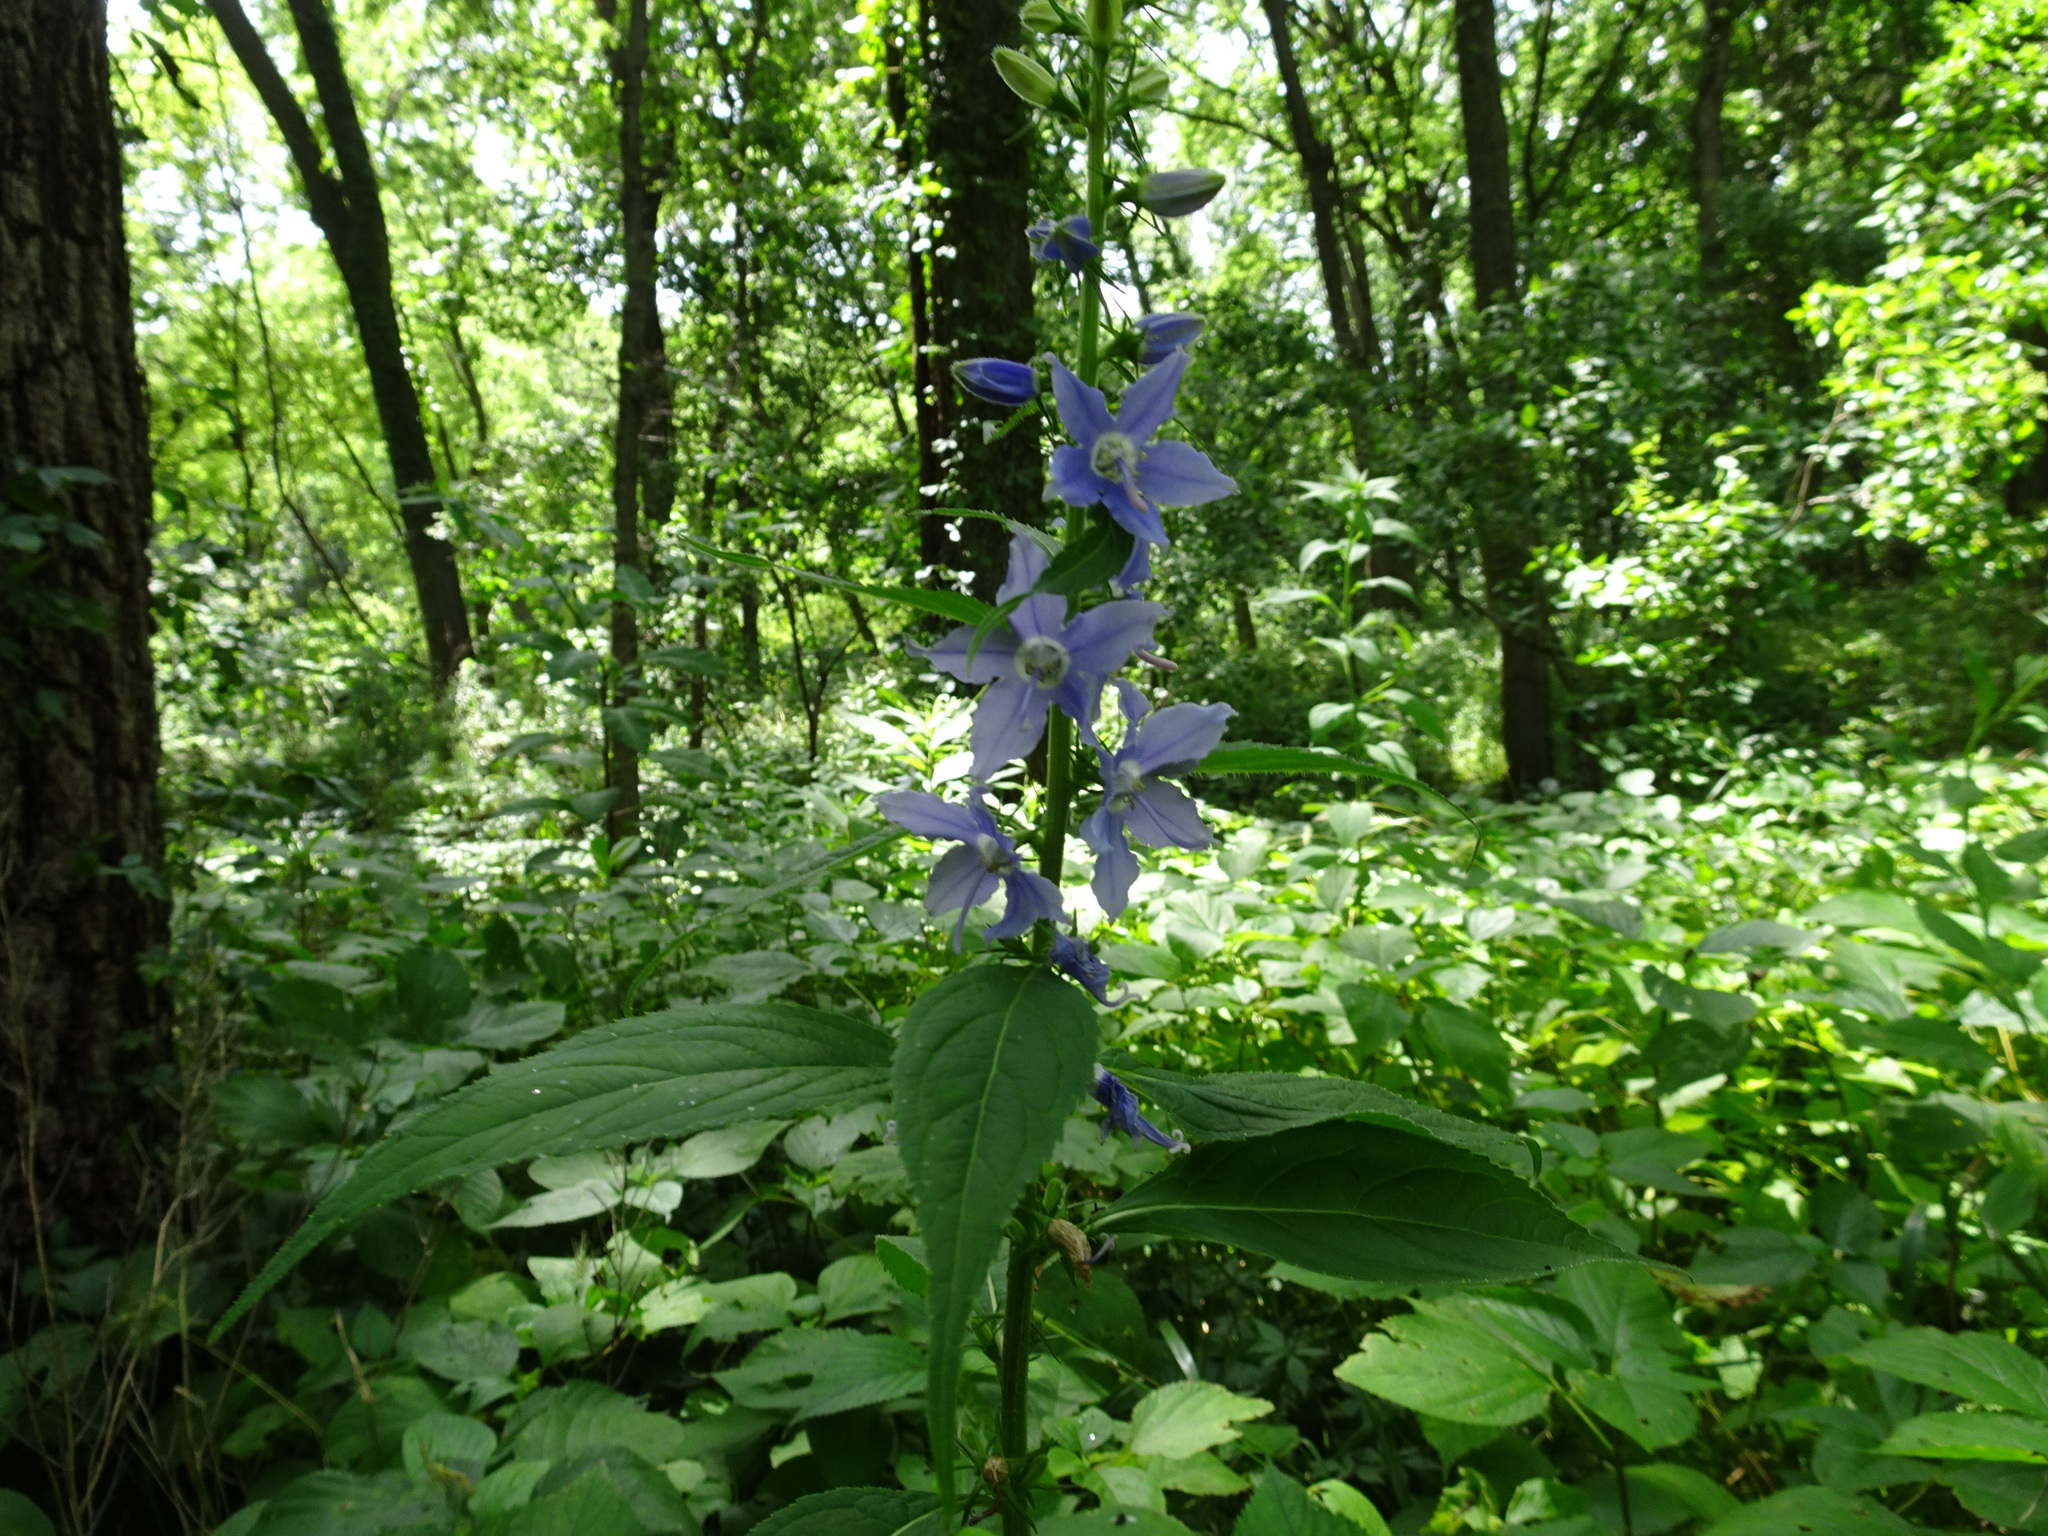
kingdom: Plantae
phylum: Tracheophyta
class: Magnoliopsida
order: Asterales
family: Campanulaceae
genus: Campanulastrum
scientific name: Campanulastrum americanum
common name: American bellflower
